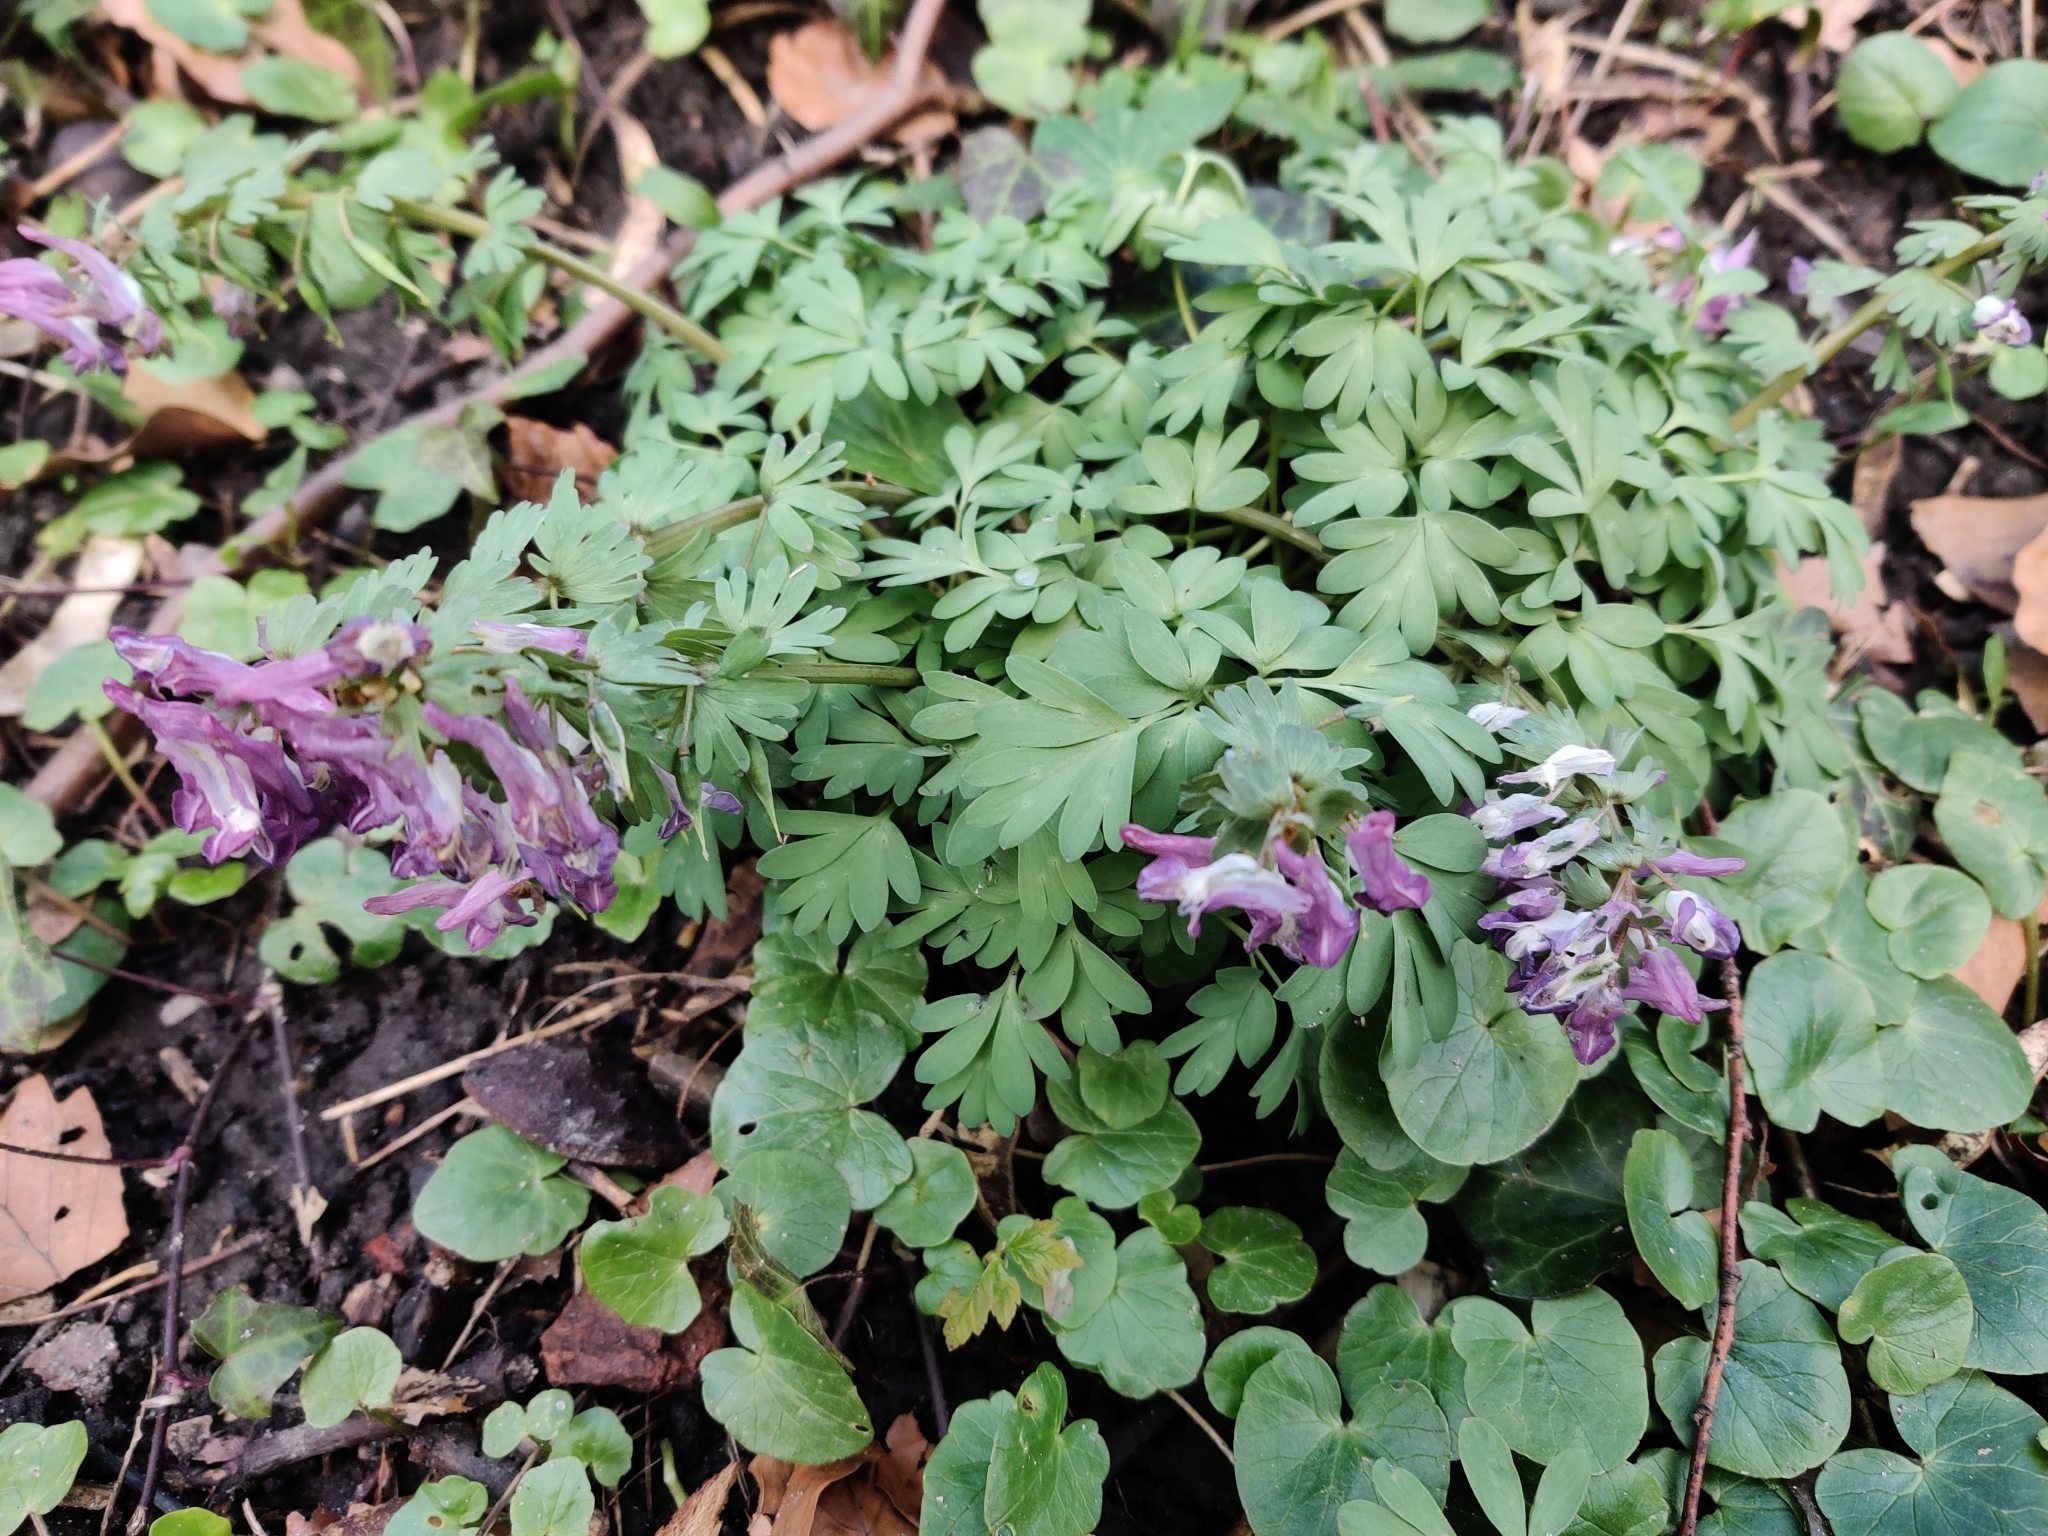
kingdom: Plantae
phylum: Tracheophyta
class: Magnoliopsida
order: Ranunculales
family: Papaveraceae
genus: Corydalis
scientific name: Corydalis solida
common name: Bird-in-a-bush
